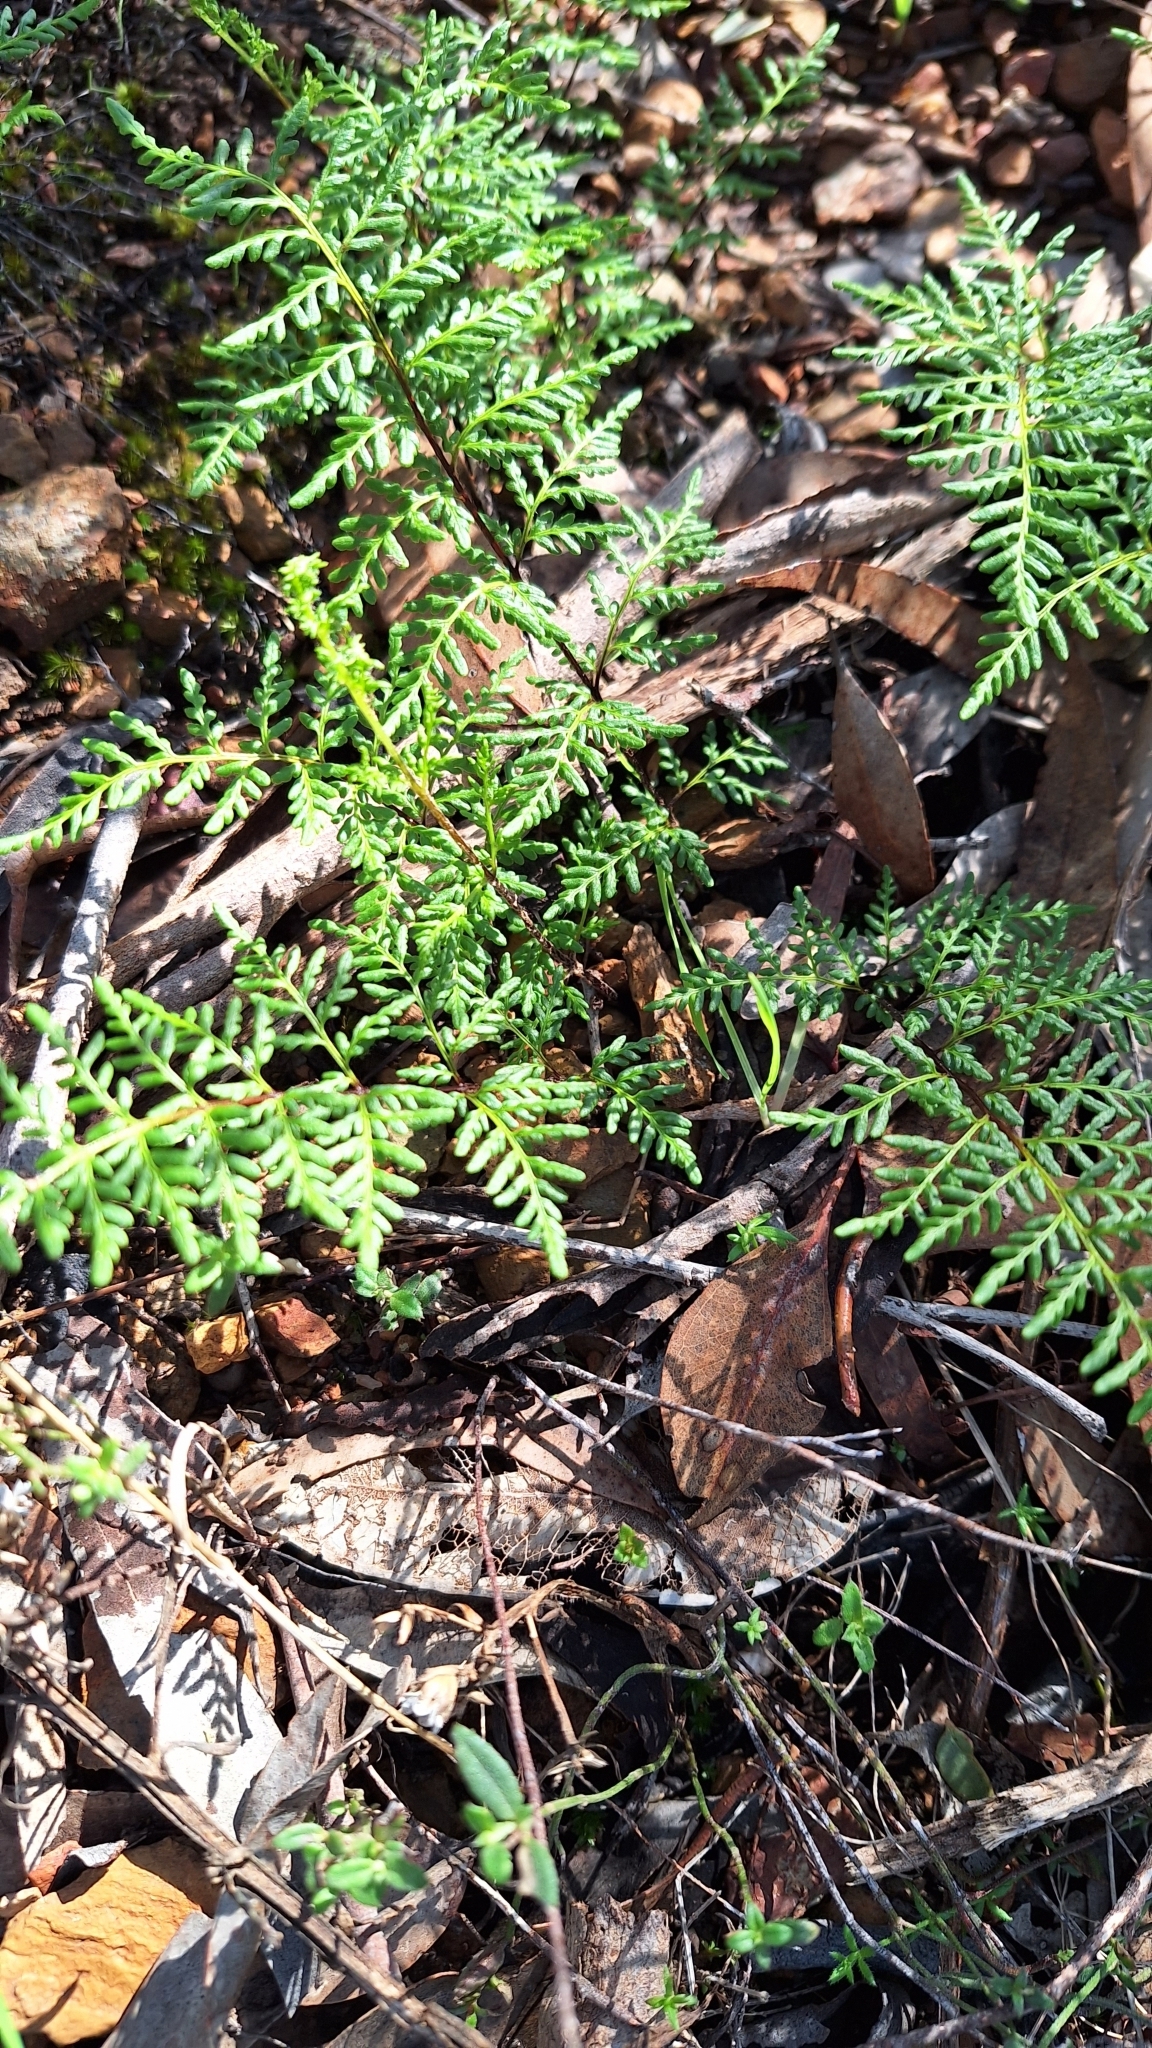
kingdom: Plantae
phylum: Tracheophyta
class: Polypodiopsida
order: Polypodiales
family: Pteridaceae
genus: Cheilanthes
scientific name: Cheilanthes austrotenuifolia
